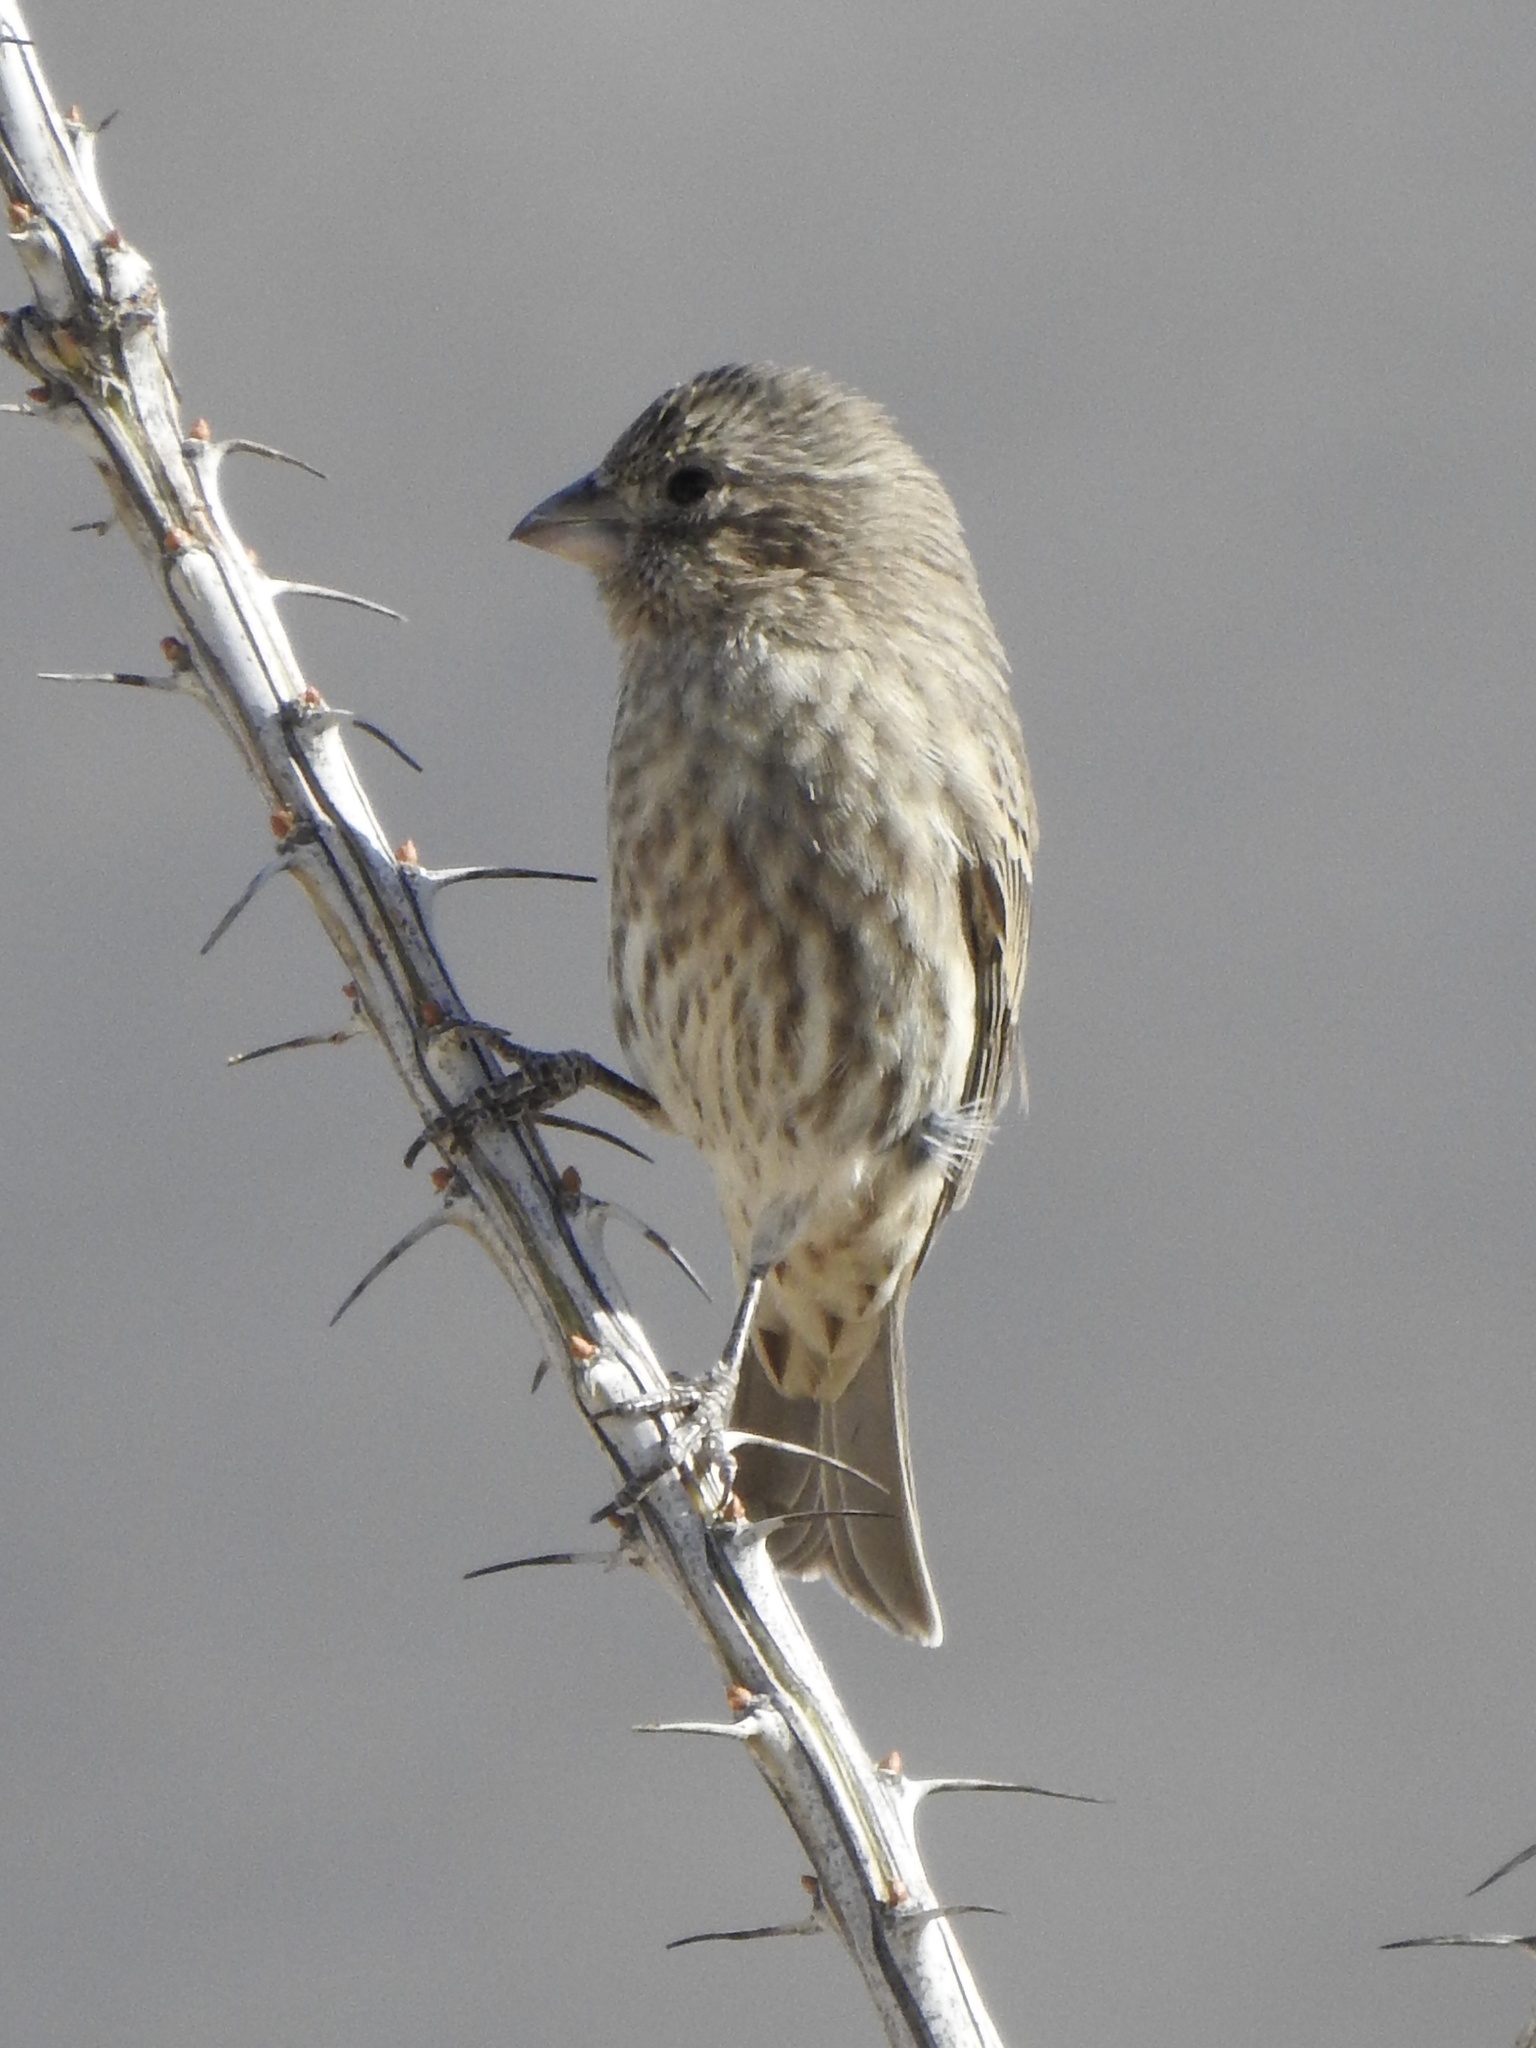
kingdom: Animalia
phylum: Chordata
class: Aves
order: Passeriformes
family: Fringillidae
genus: Haemorhous
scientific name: Haemorhous mexicanus
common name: House finch
